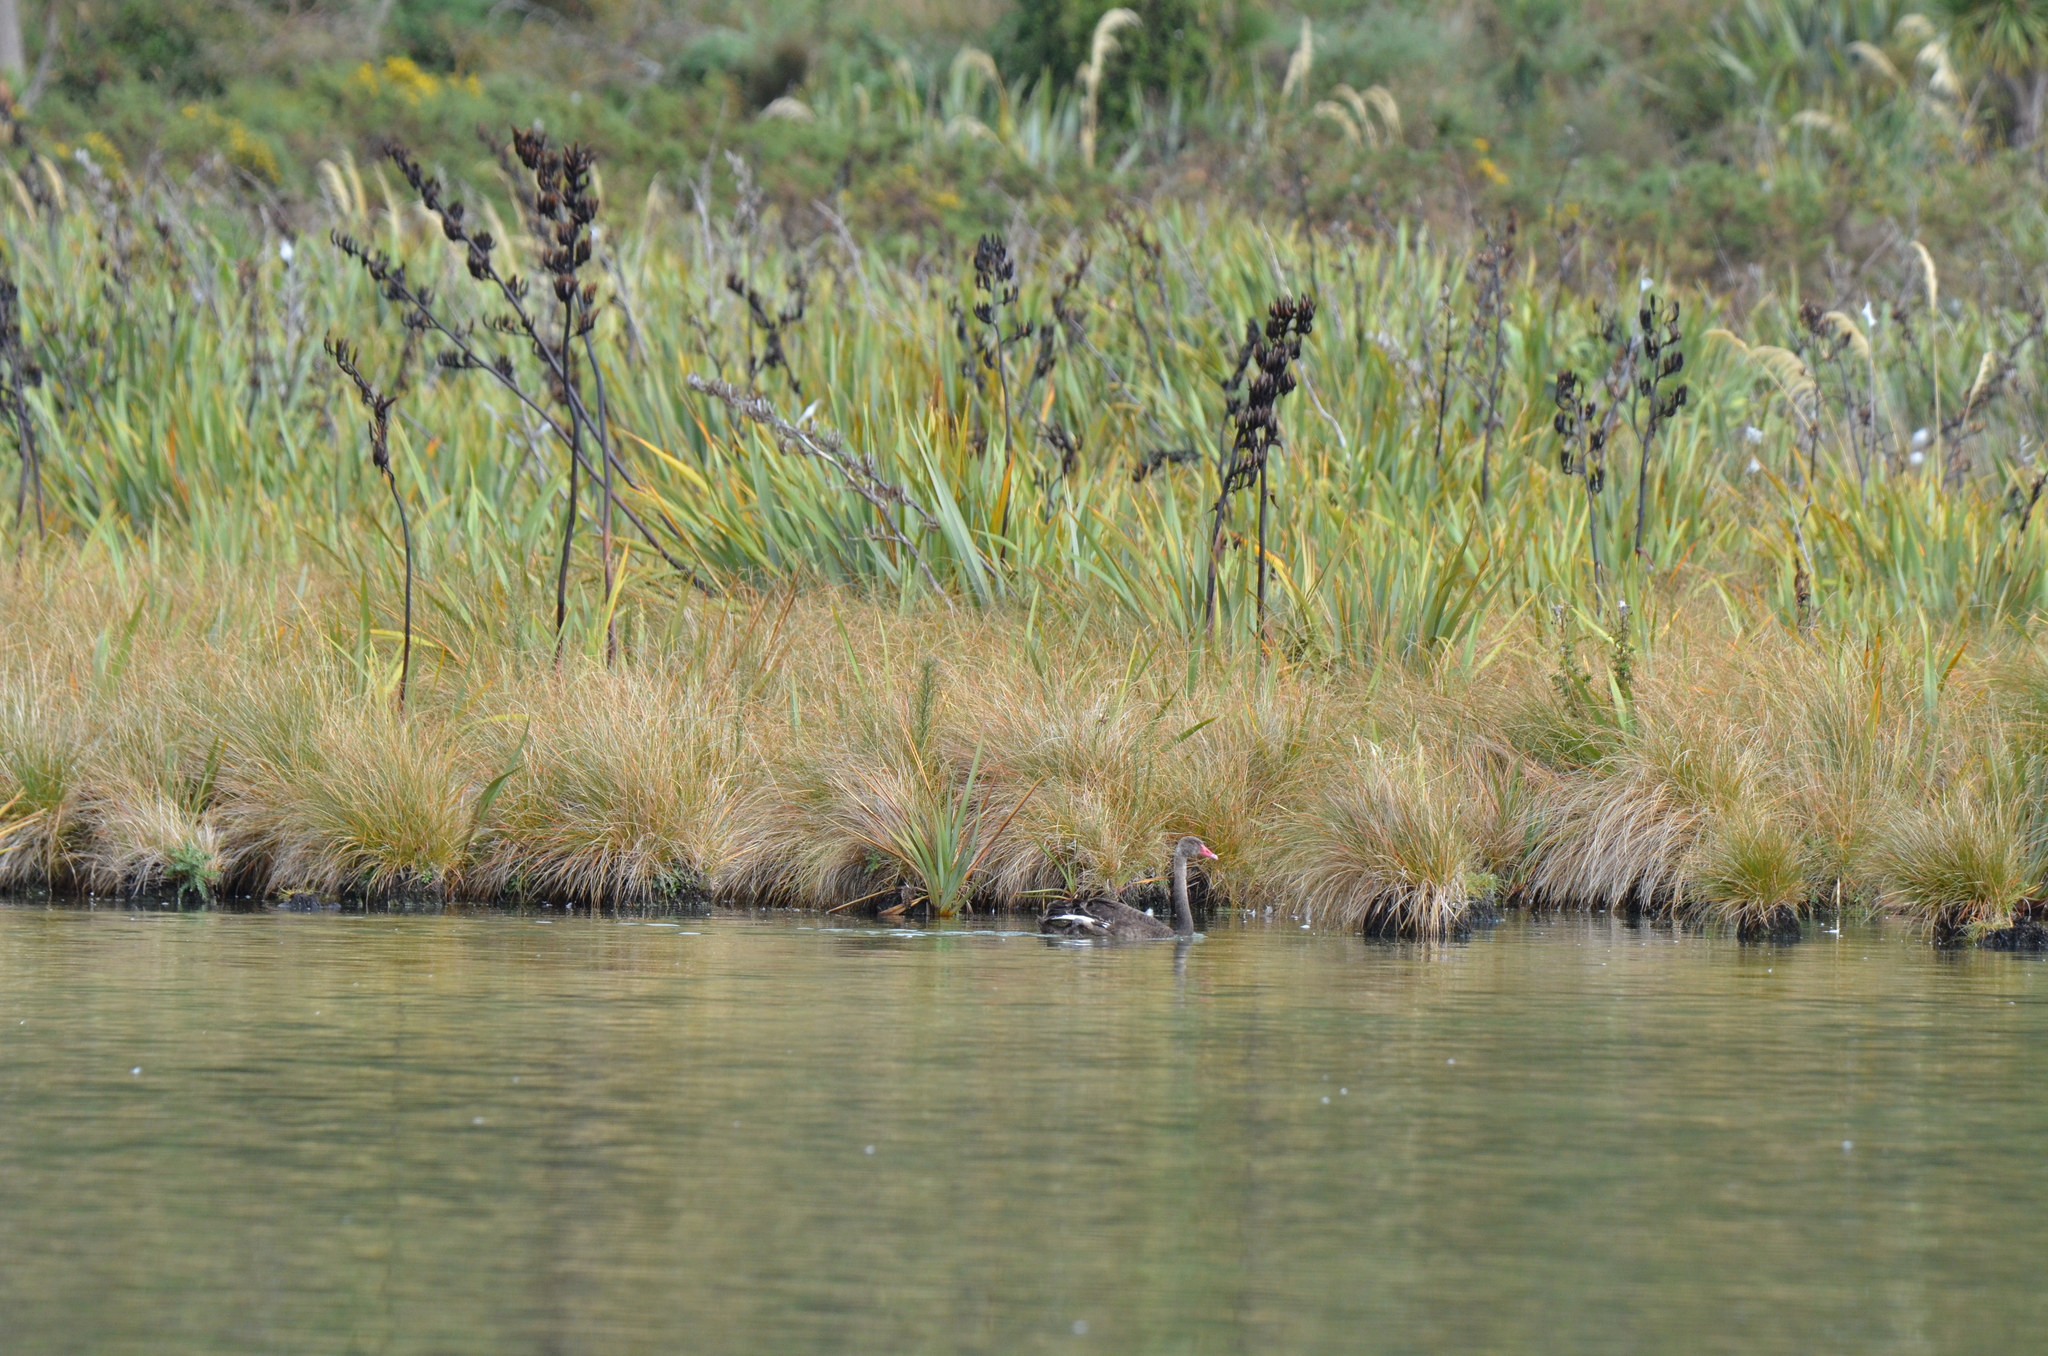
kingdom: Animalia
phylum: Chordata
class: Aves
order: Anseriformes
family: Anatidae
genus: Cygnus
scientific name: Cygnus atratus
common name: Black swan
